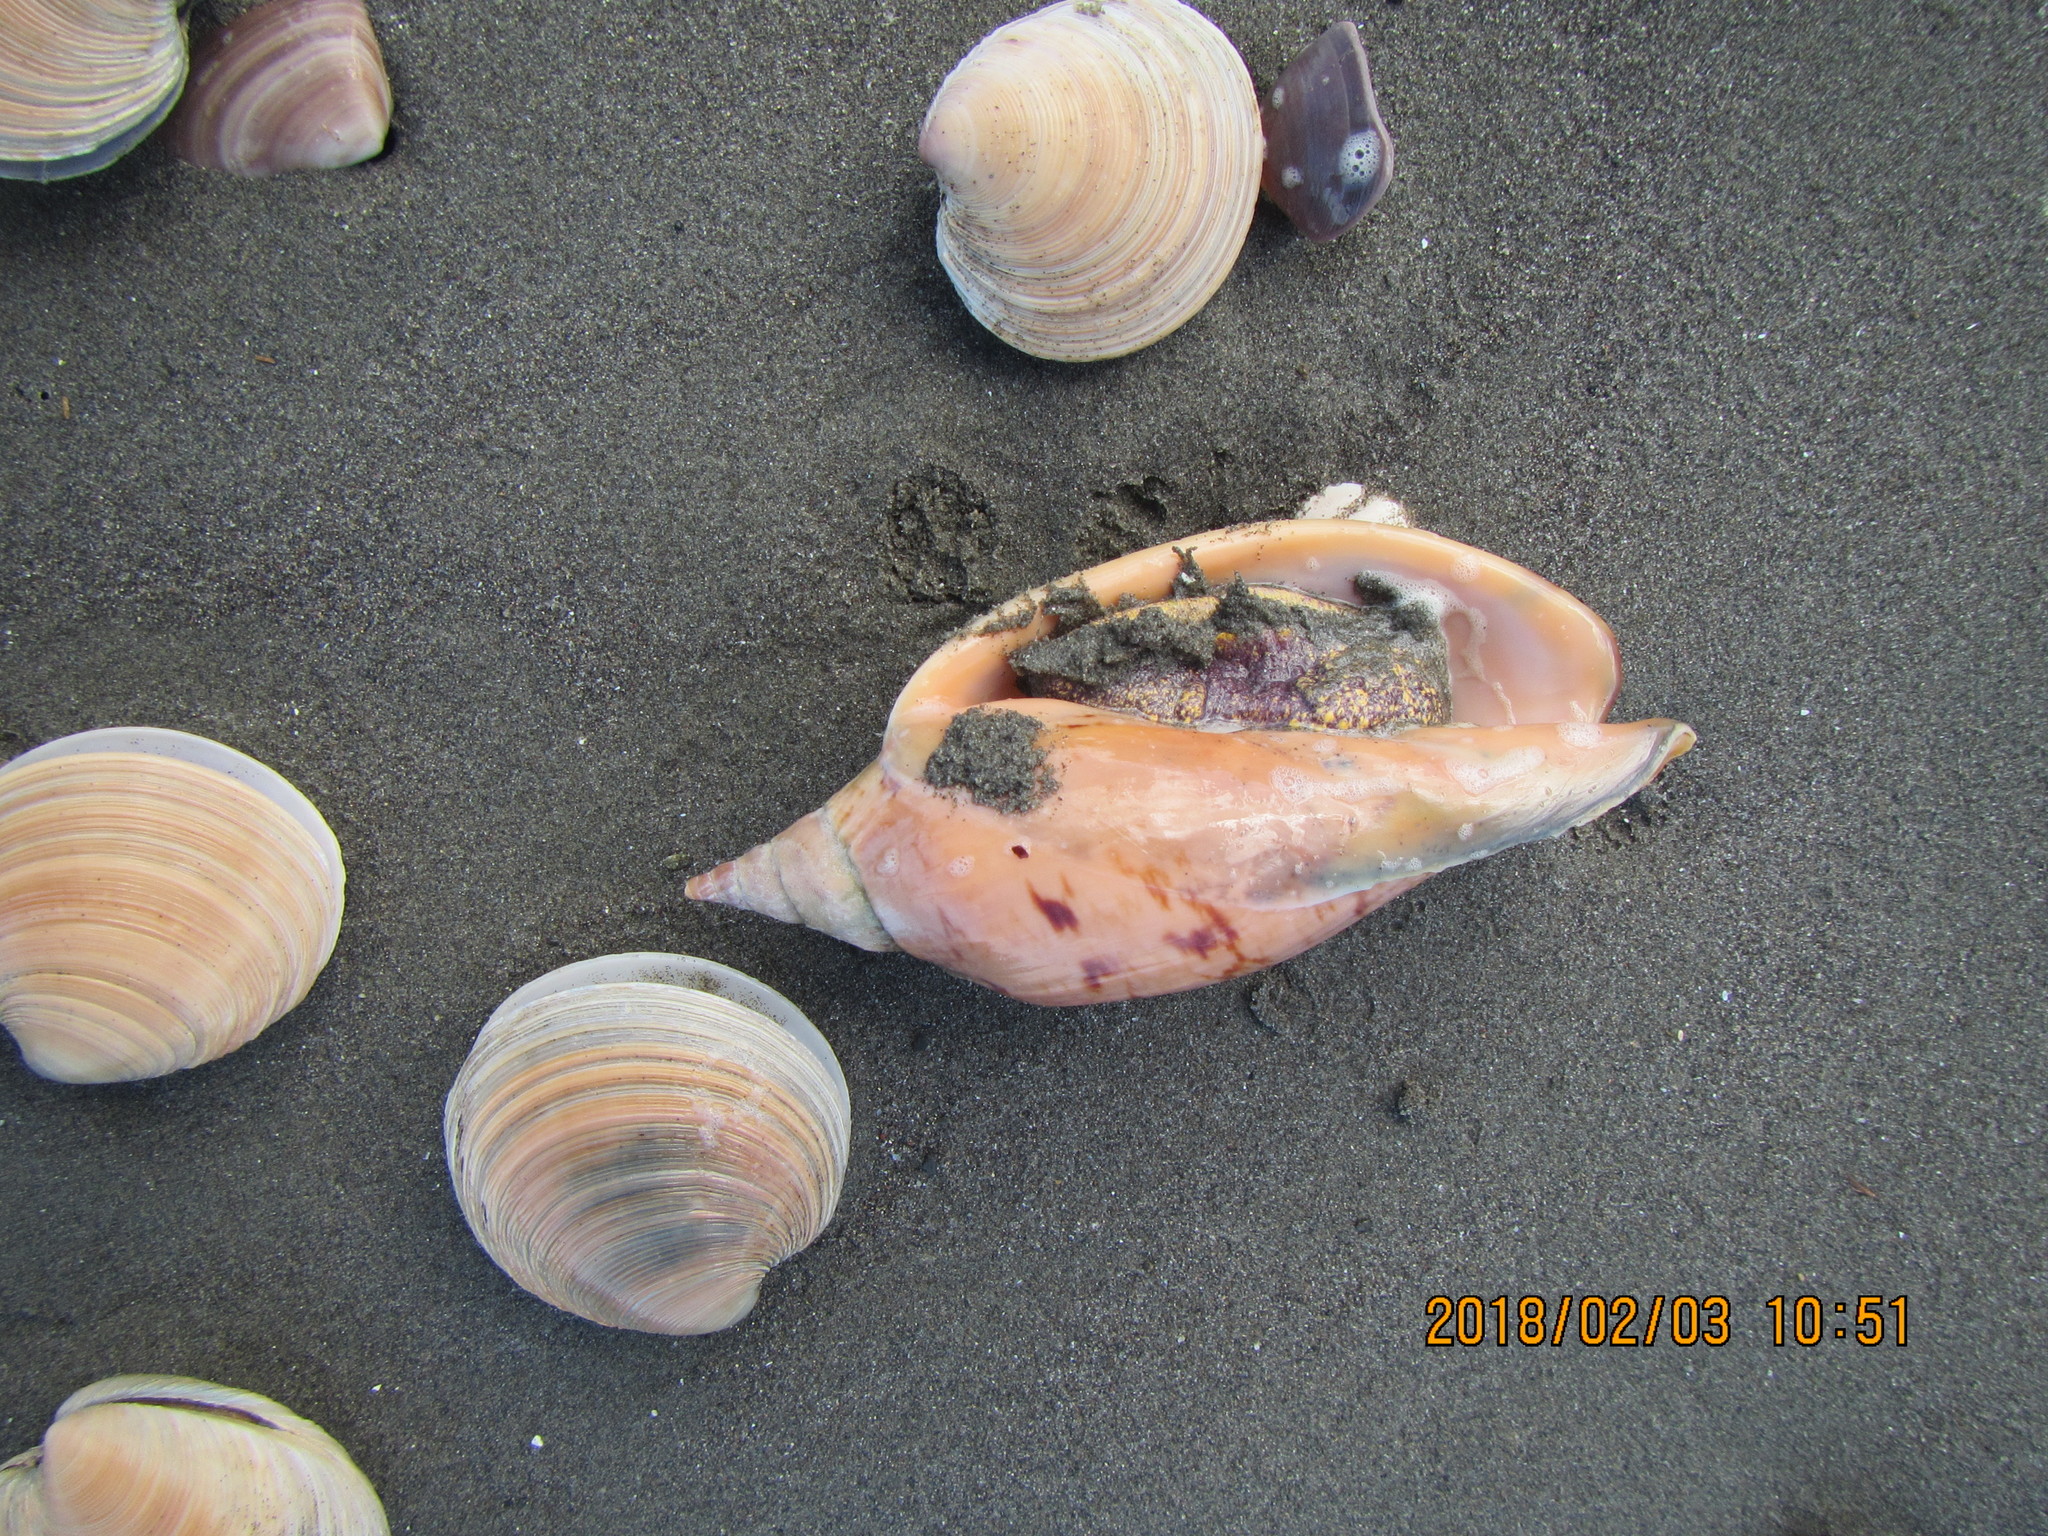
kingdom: Animalia
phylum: Mollusca
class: Gastropoda
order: Neogastropoda
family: Volutidae
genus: Alcithoe
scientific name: Alcithoe arabica
